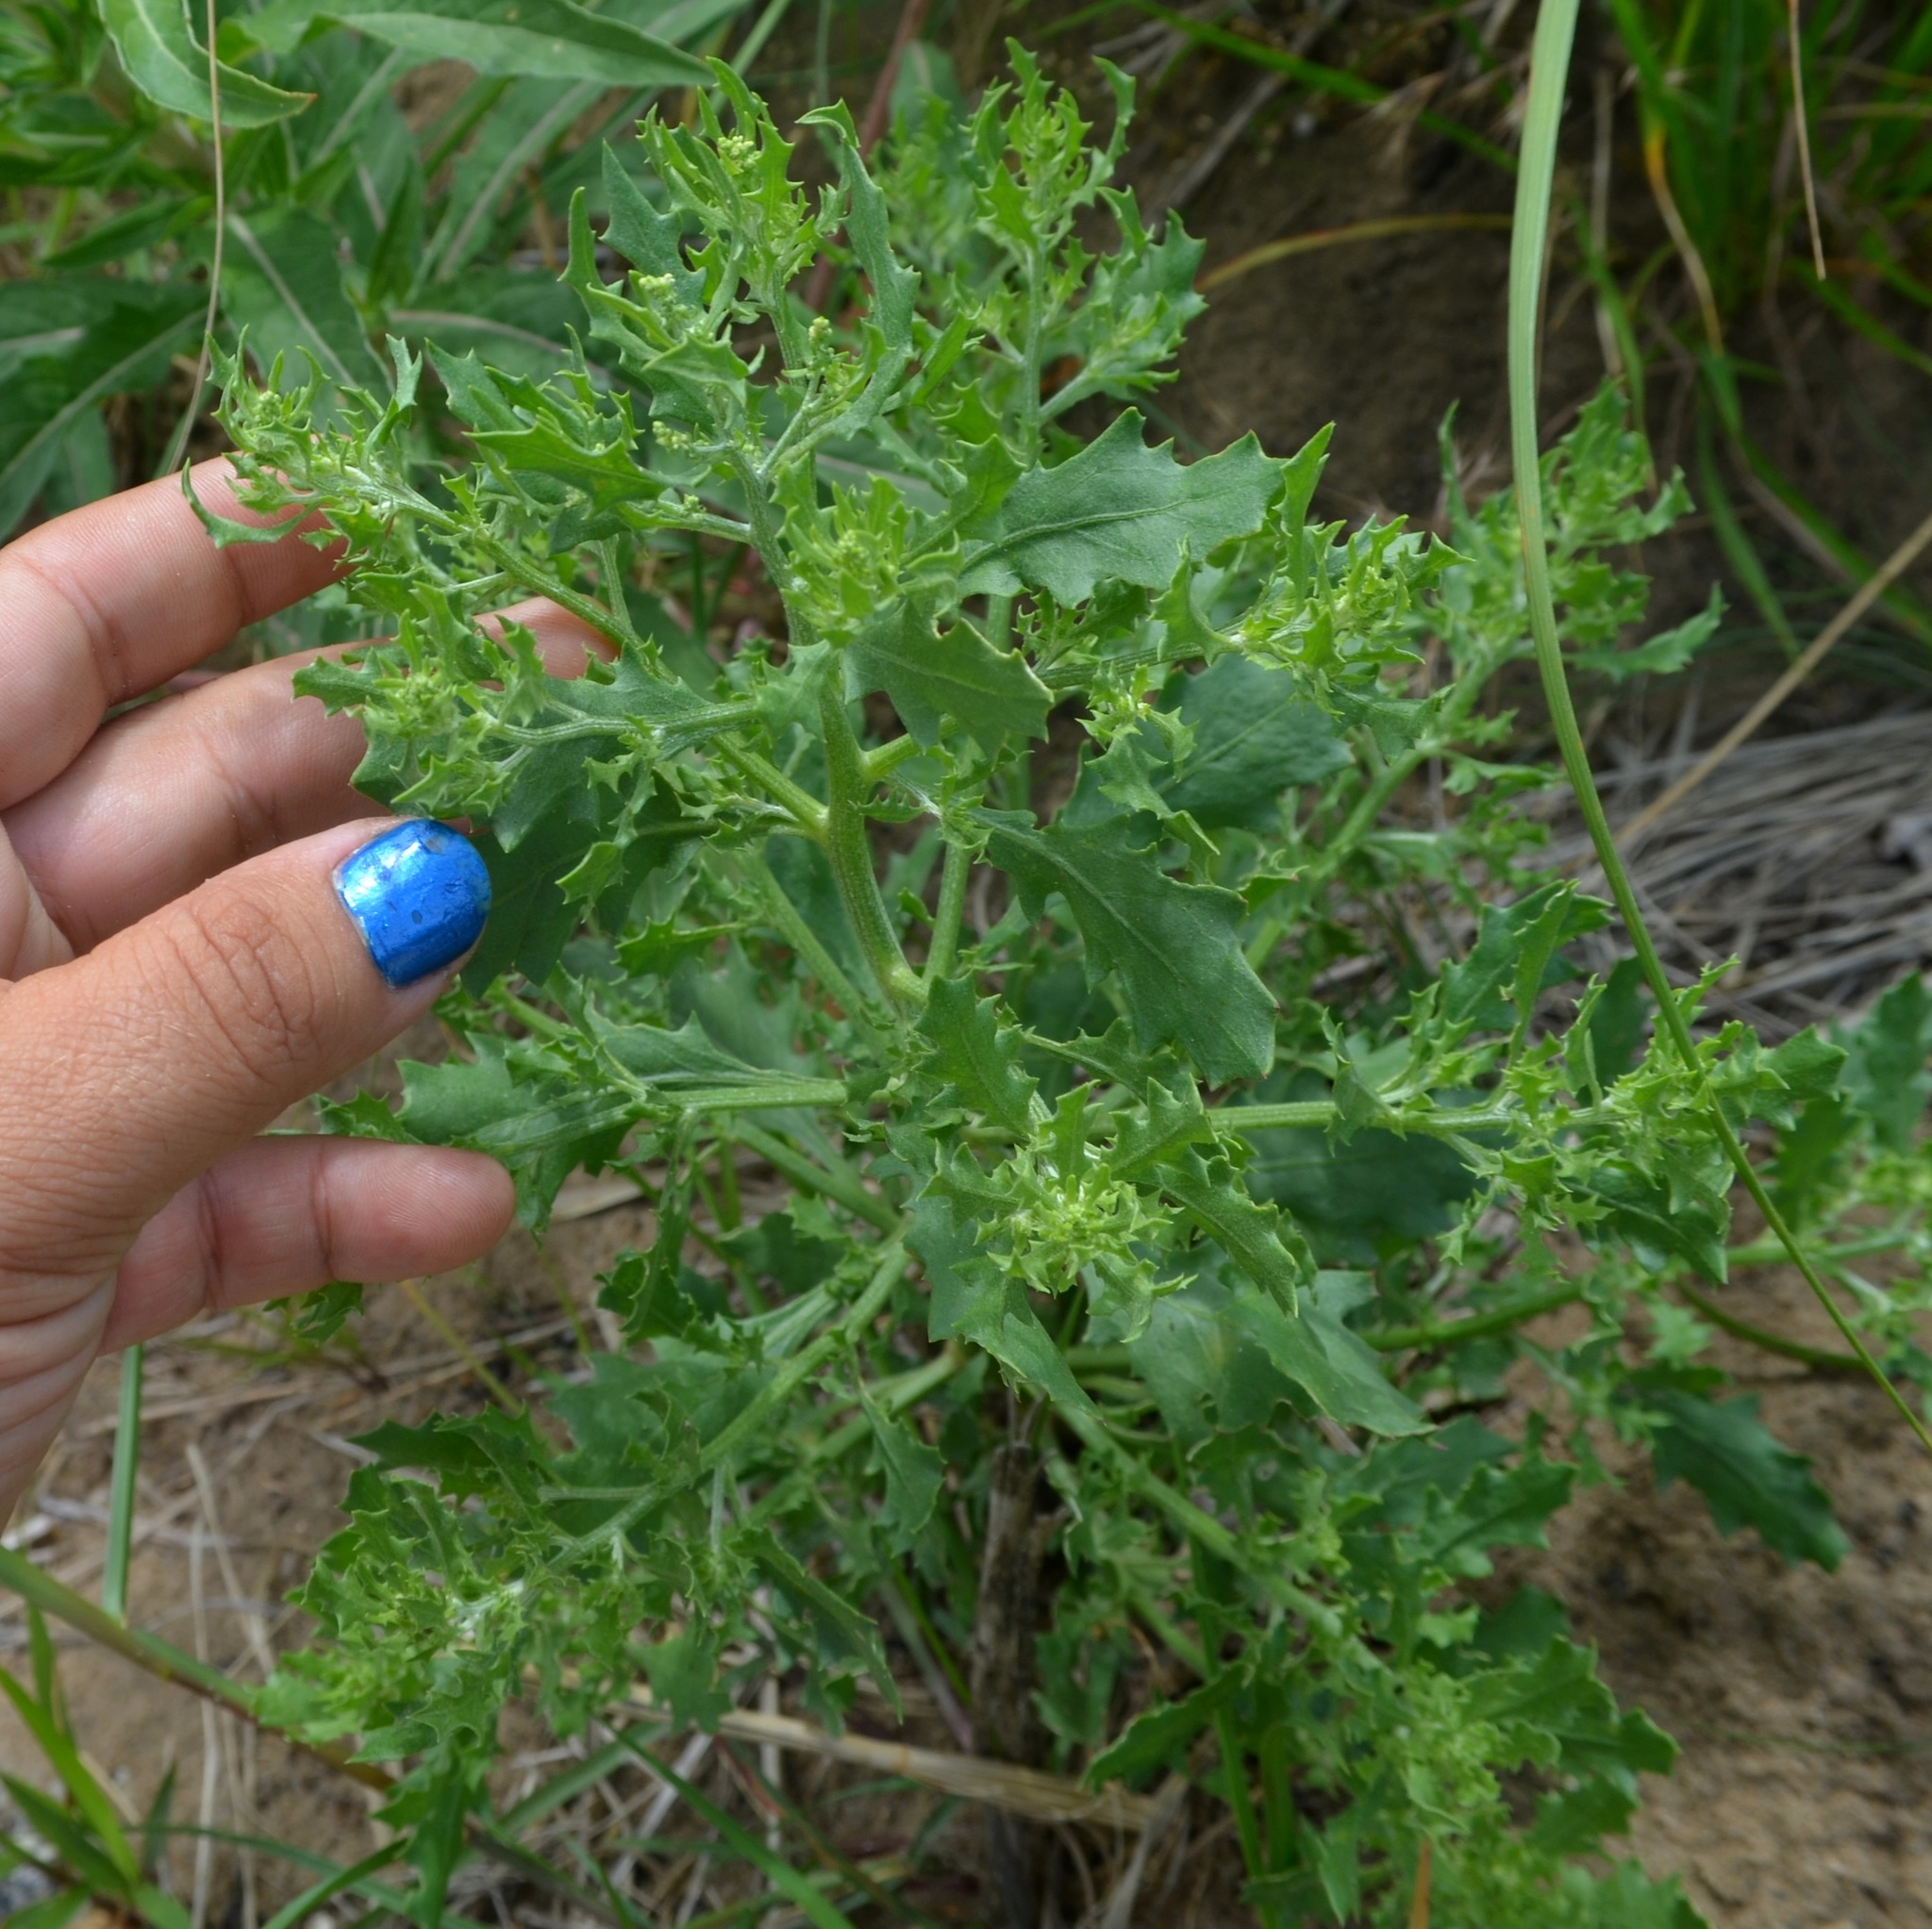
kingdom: Plantae
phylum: Tracheophyta
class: Magnoliopsida
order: Caryophyllales
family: Amaranthaceae
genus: Dysphania
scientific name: Dysphania atriplicifolia
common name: Plains tumbleweed
